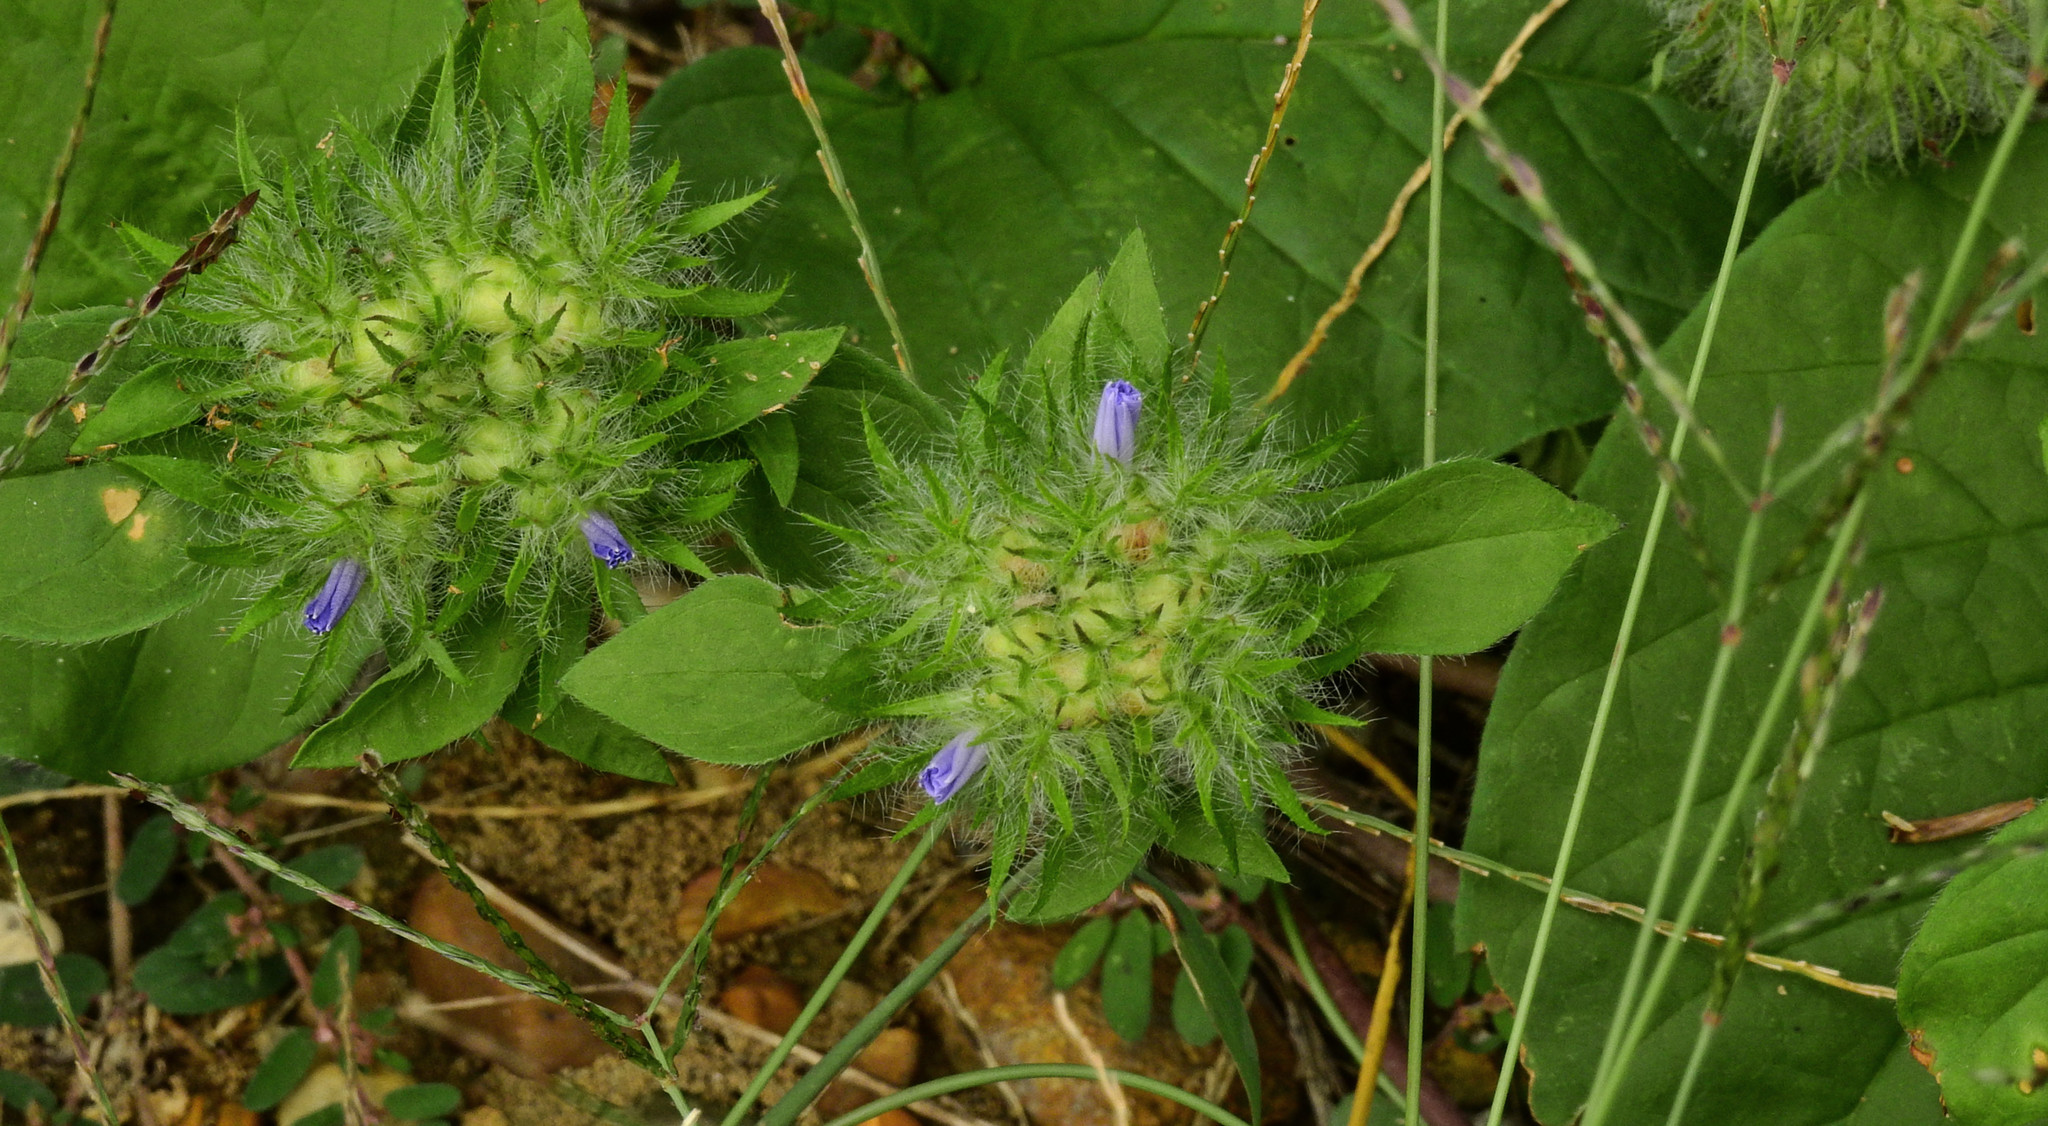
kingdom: Plantae
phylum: Tracheophyta
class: Magnoliopsida
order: Solanales
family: Convolvulaceae
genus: Jacquemontia
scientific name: Jacquemontia tamnifolia
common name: Hairy clustervine
